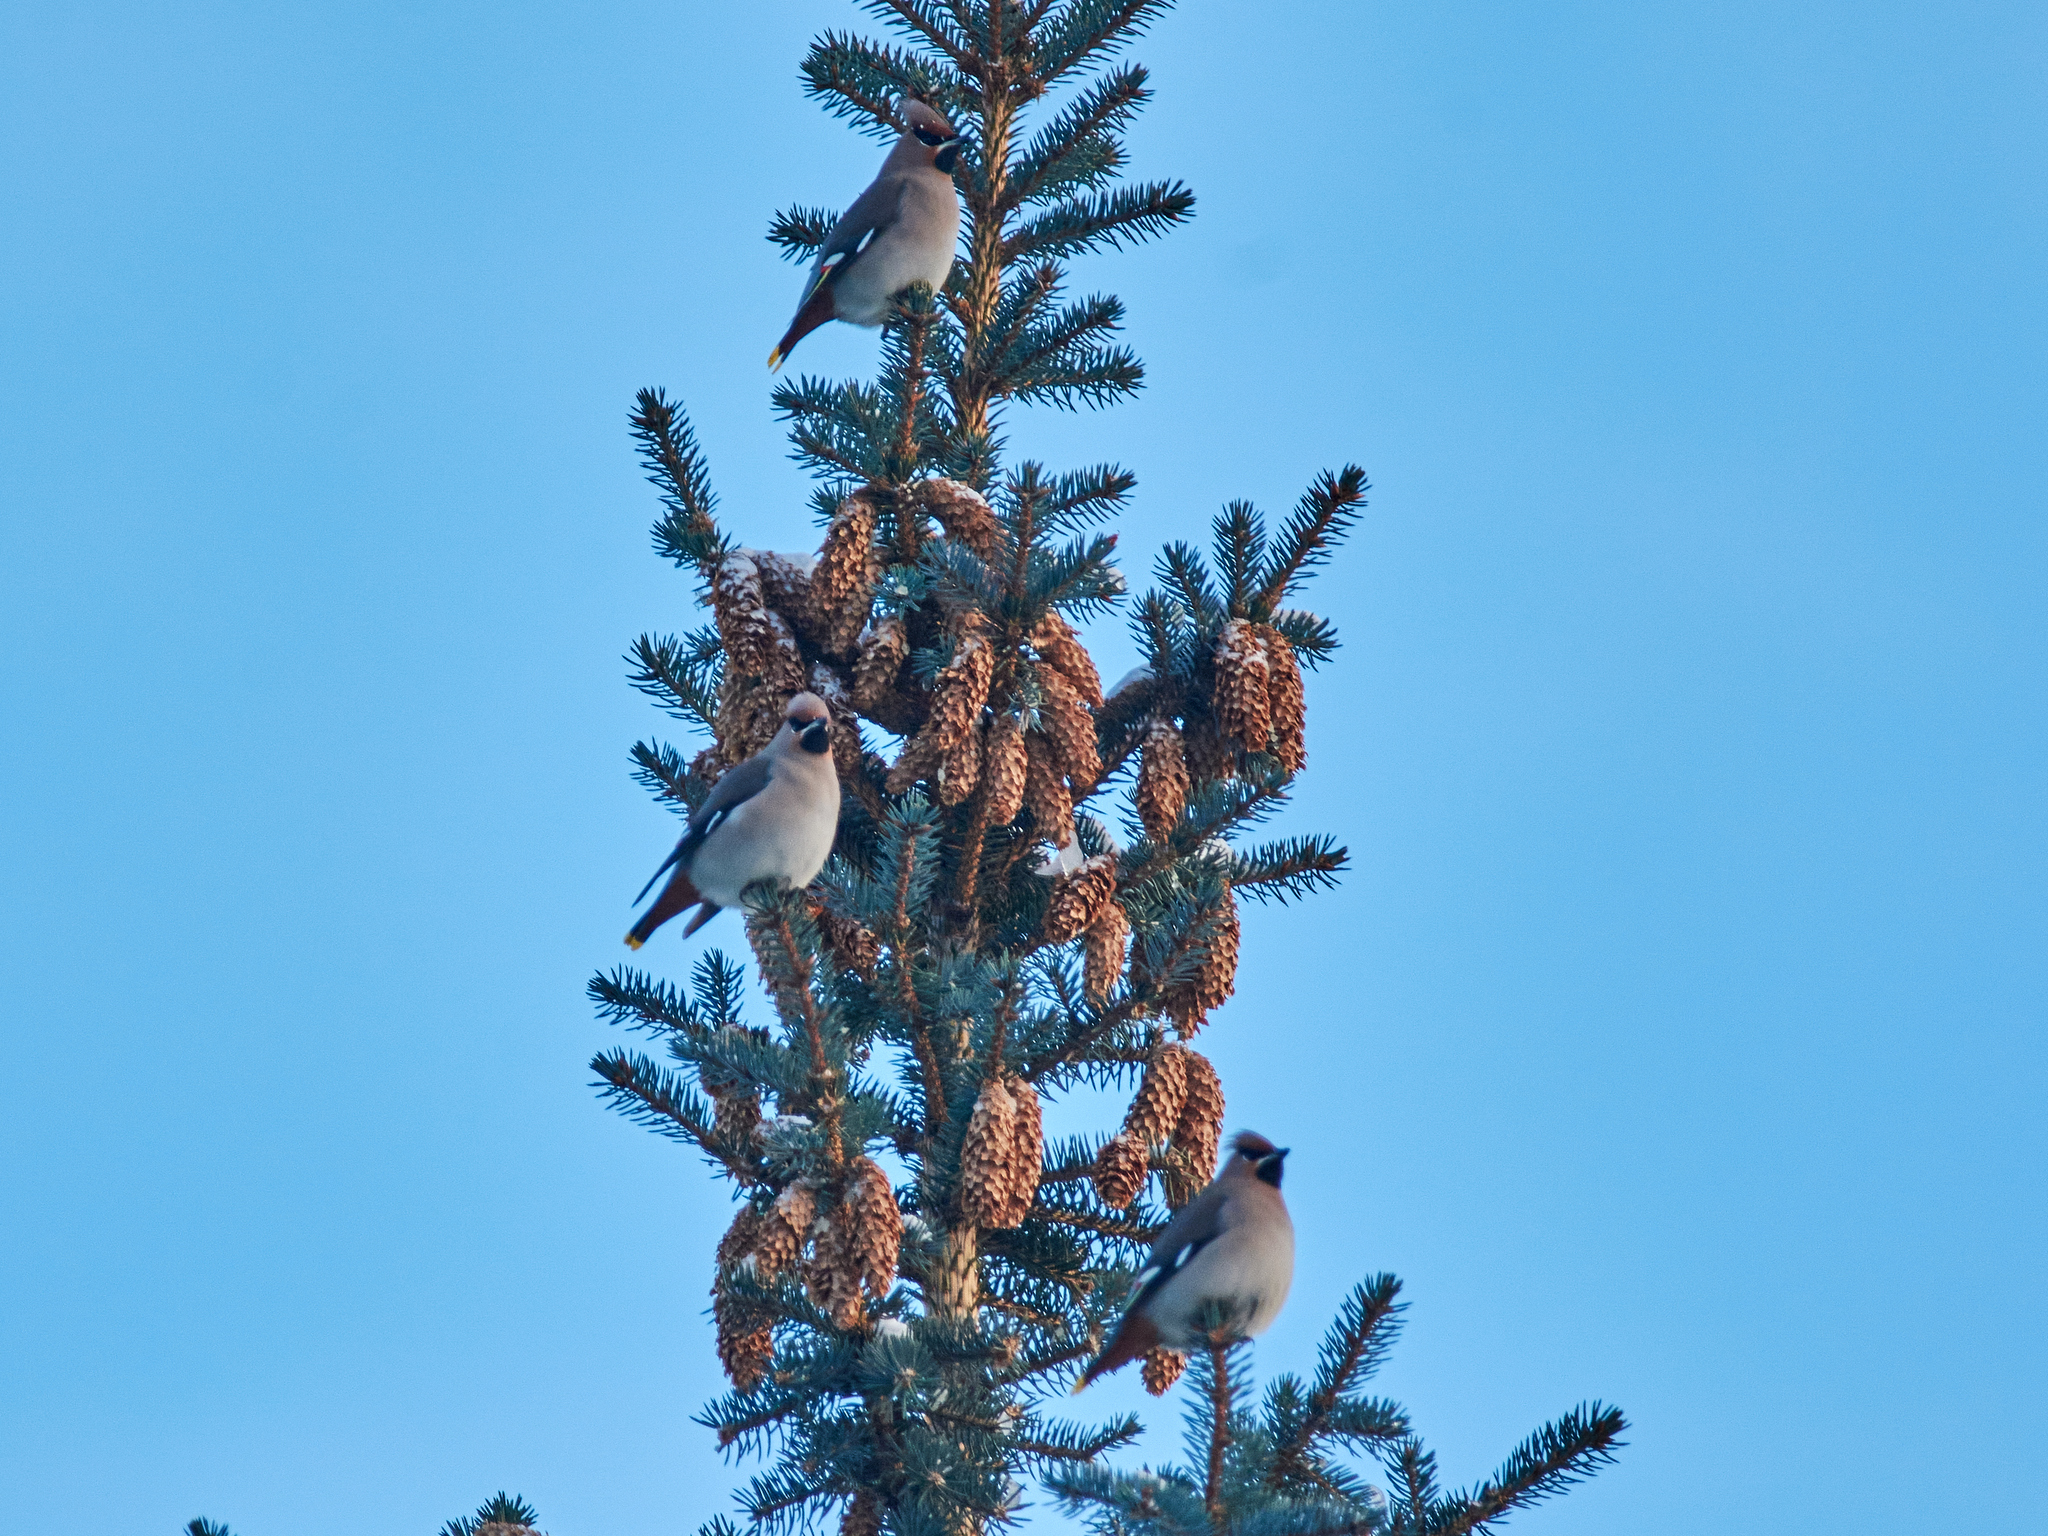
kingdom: Animalia
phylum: Chordata
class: Aves
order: Passeriformes
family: Bombycillidae
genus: Bombycilla
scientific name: Bombycilla garrulus
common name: Bohemian waxwing
